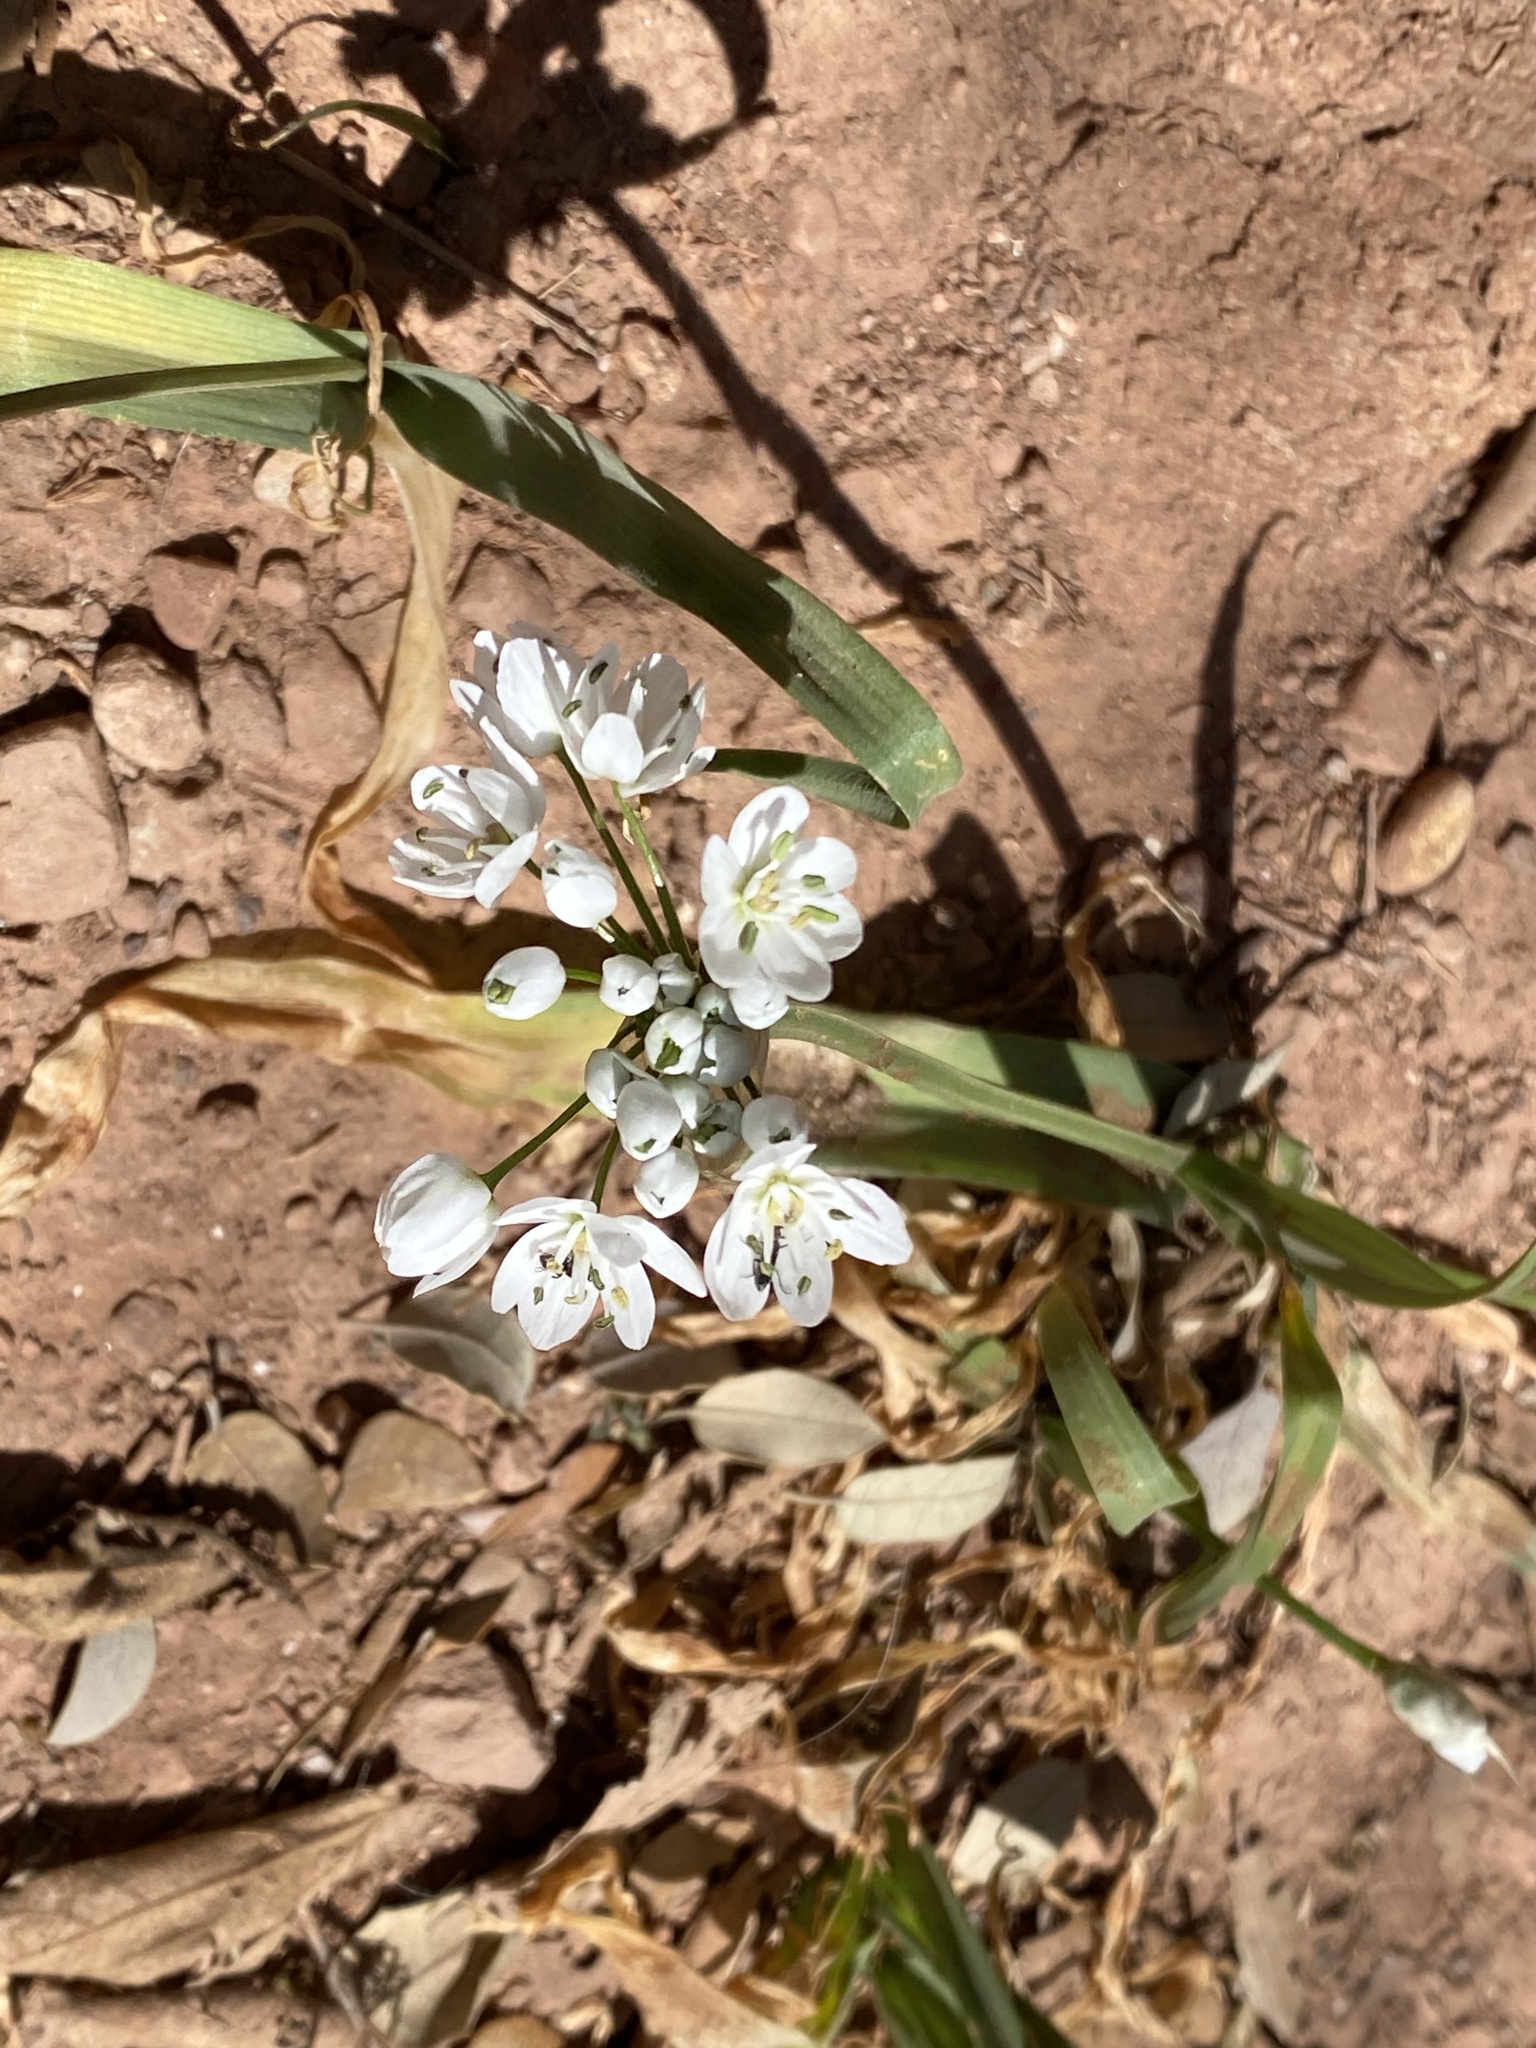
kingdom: Plantae
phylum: Tracheophyta
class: Liliopsida
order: Asparagales
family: Amaryllidaceae
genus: Allium
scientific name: Allium neapolitanum
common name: Neapolitan garlic
